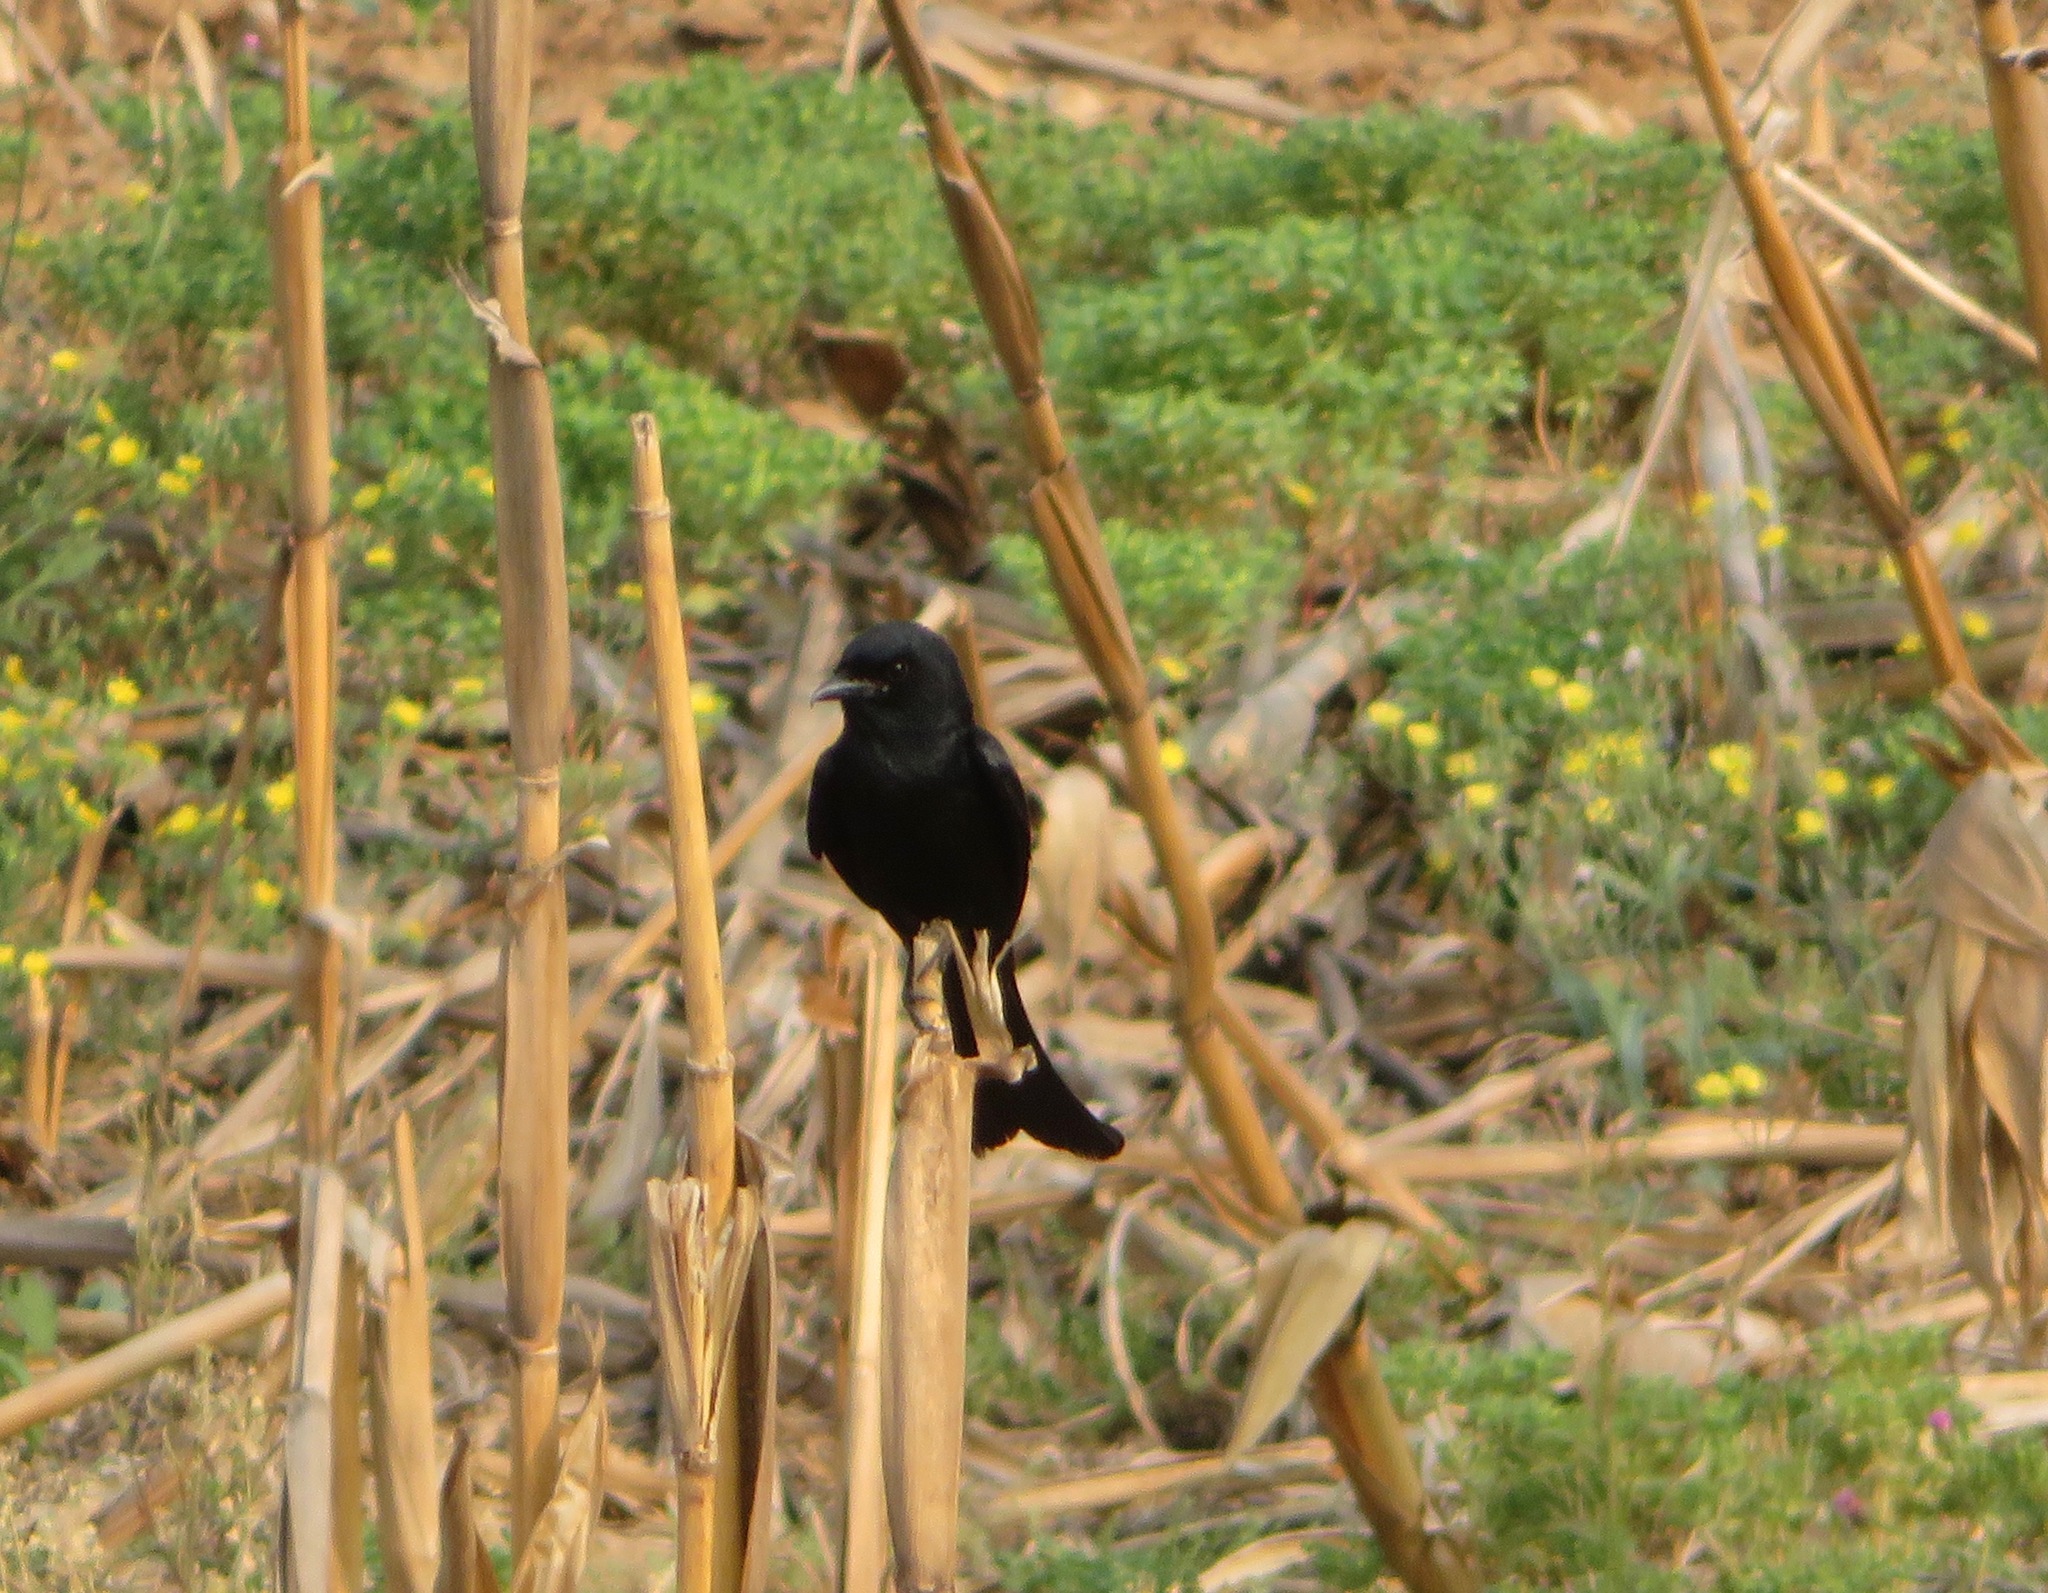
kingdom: Animalia
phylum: Chordata
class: Aves
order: Passeriformes
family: Dicruridae
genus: Dicrurus
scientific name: Dicrurus macrocercus
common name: Black drongo
